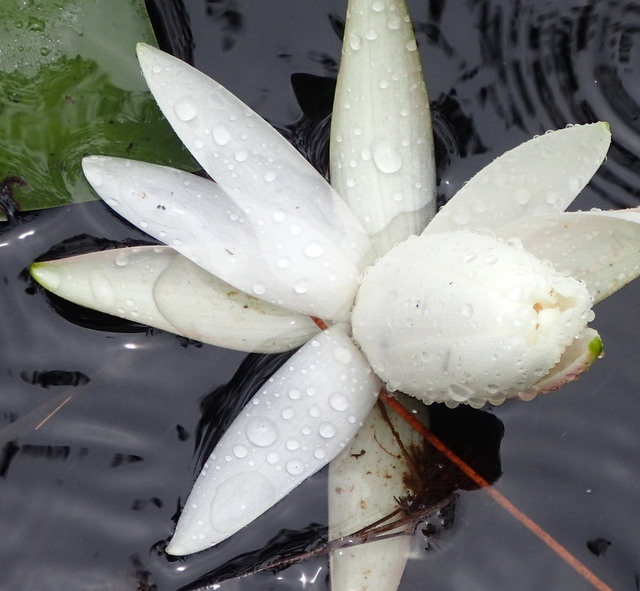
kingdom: Plantae
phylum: Tracheophyta
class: Magnoliopsida
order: Nymphaeales
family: Nymphaeaceae
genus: Nymphaea
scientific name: Nymphaea odorata
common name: Fragrant water-lily
